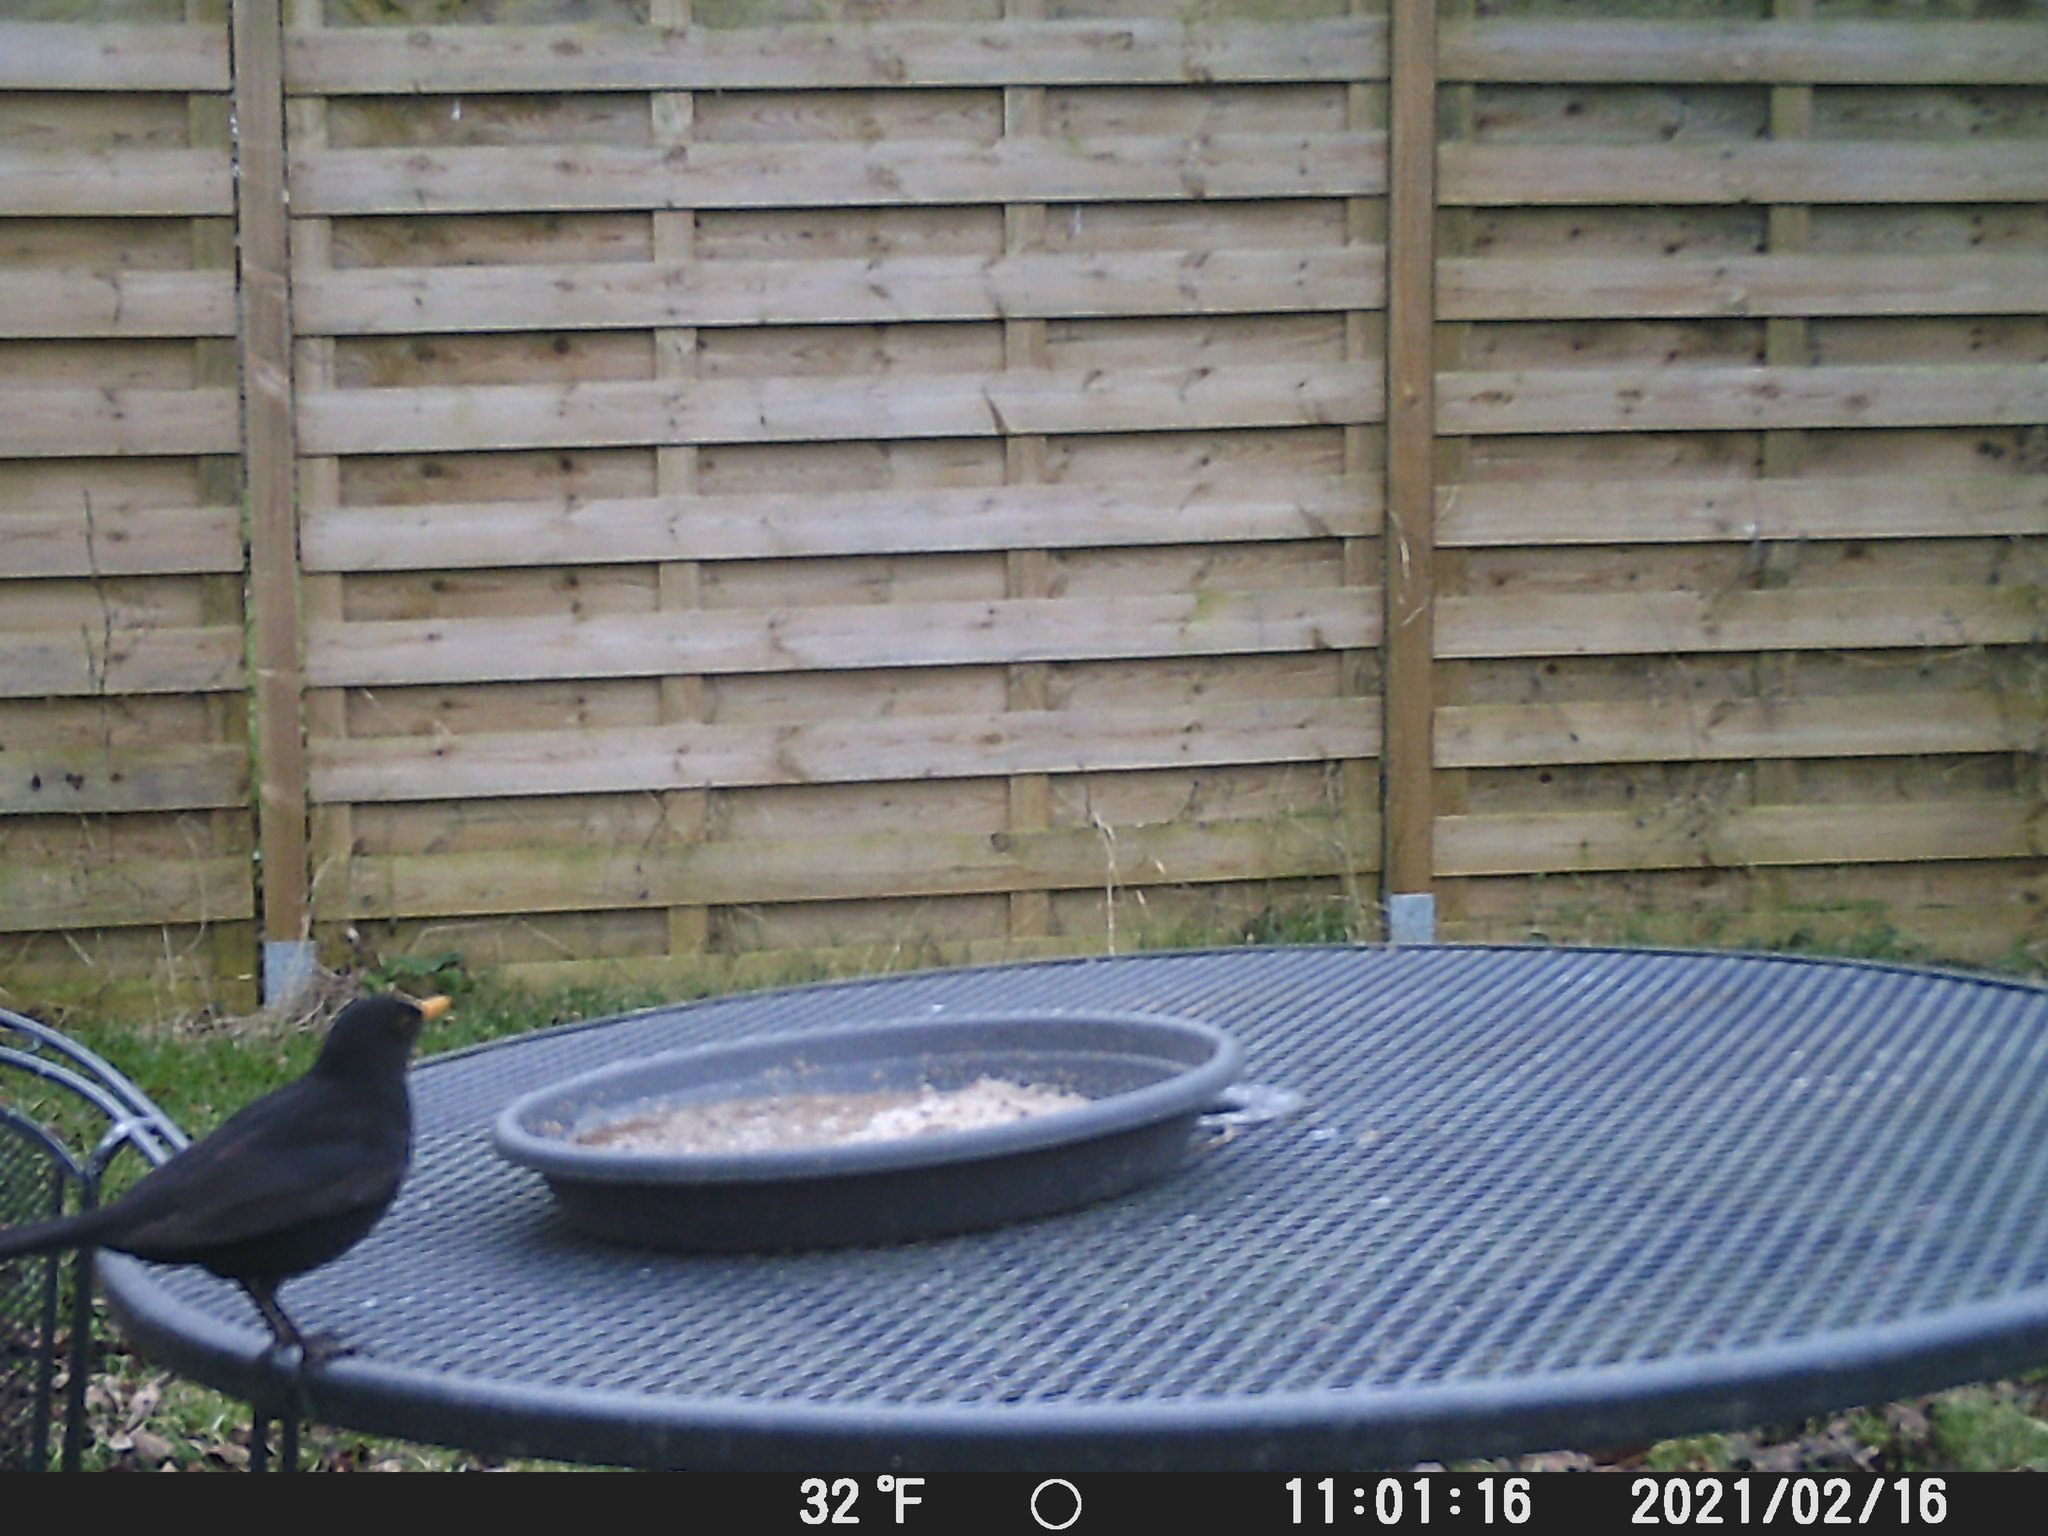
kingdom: Animalia
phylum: Chordata
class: Aves
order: Passeriformes
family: Turdidae
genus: Turdus
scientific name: Turdus merula
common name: Common blackbird
